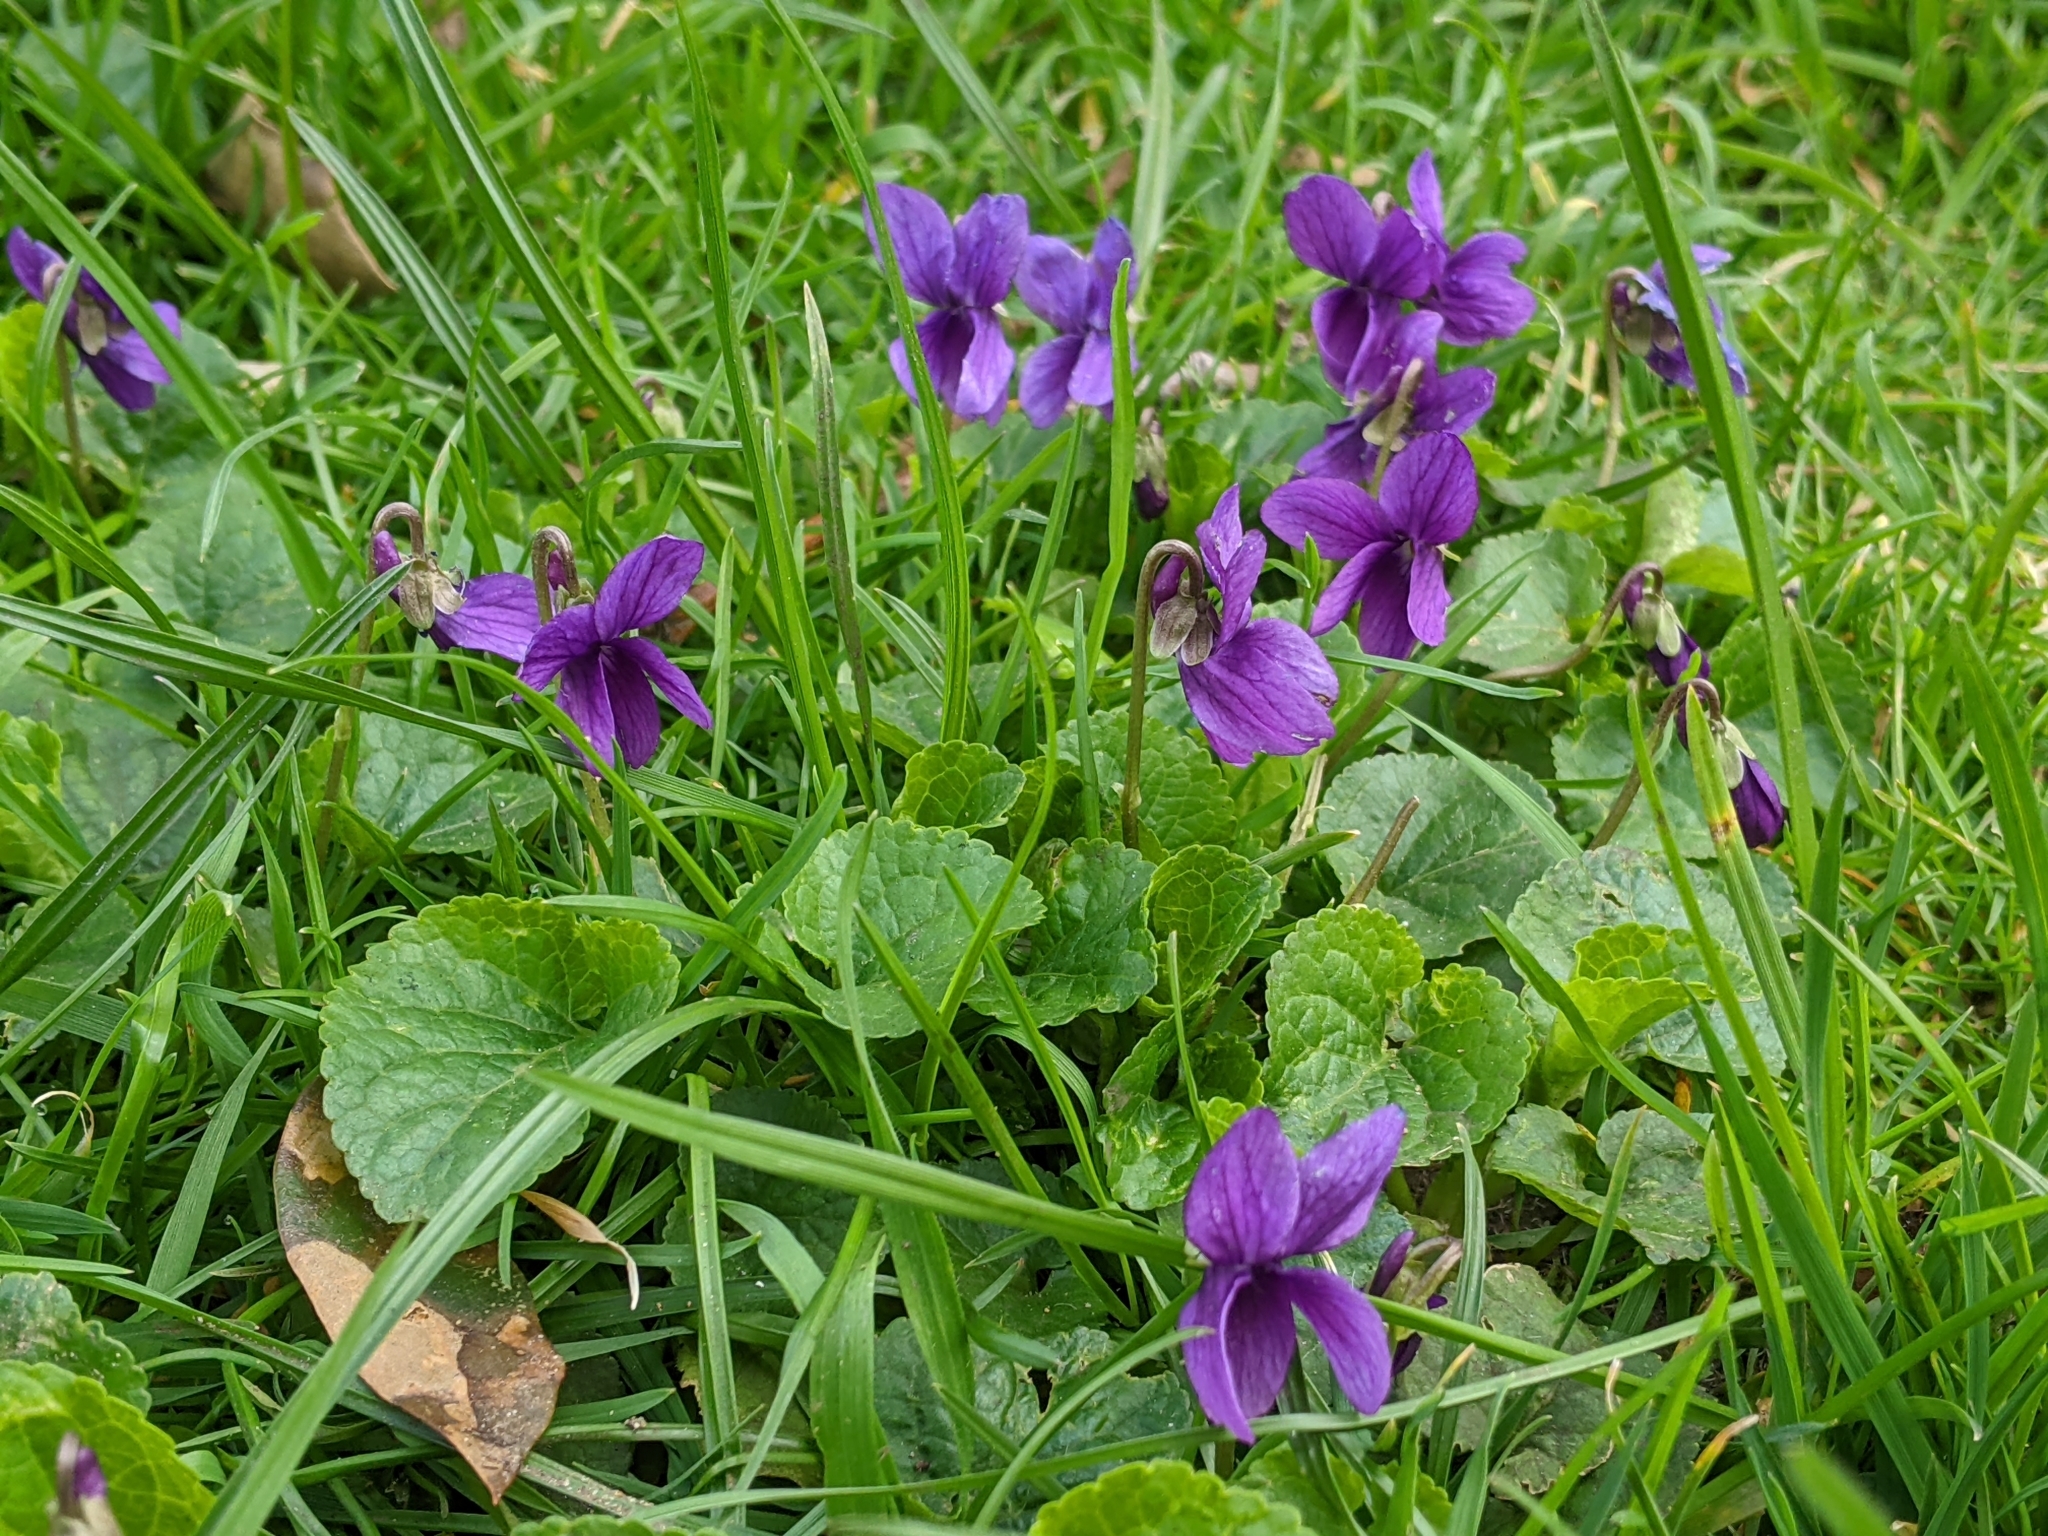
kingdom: Plantae
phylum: Tracheophyta
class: Magnoliopsida
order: Malpighiales
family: Violaceae
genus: Viola
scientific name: Viola odorata
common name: Sweet violet
